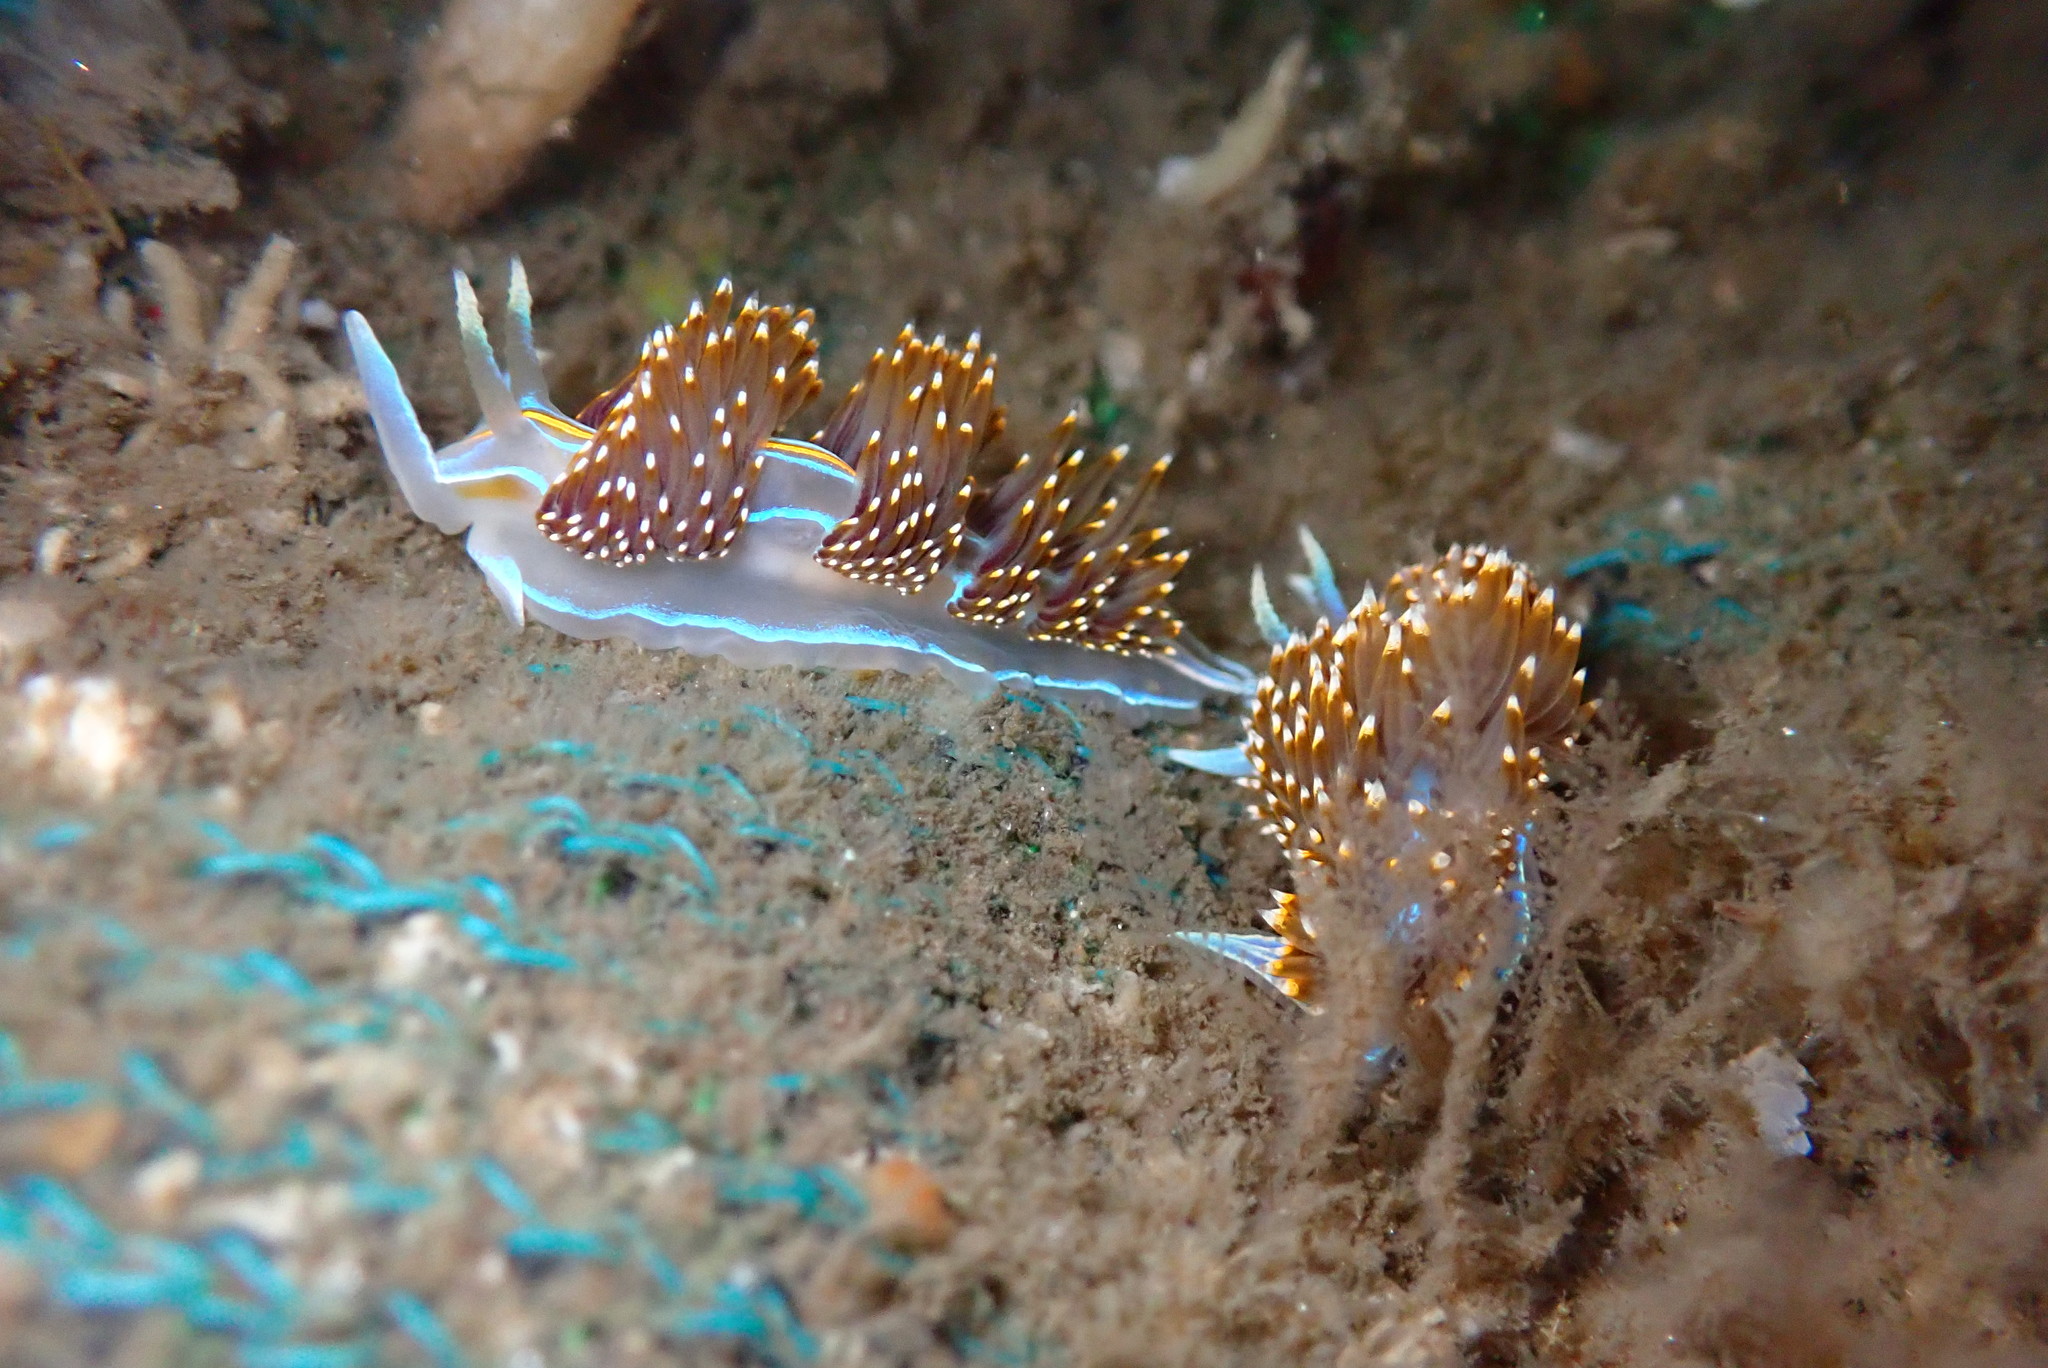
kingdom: Animalia
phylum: Mollusca
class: Gastropoda
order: Nudibranchia
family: Myrrhinidae
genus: Hermissenda
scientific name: Hermissenda opalescens
